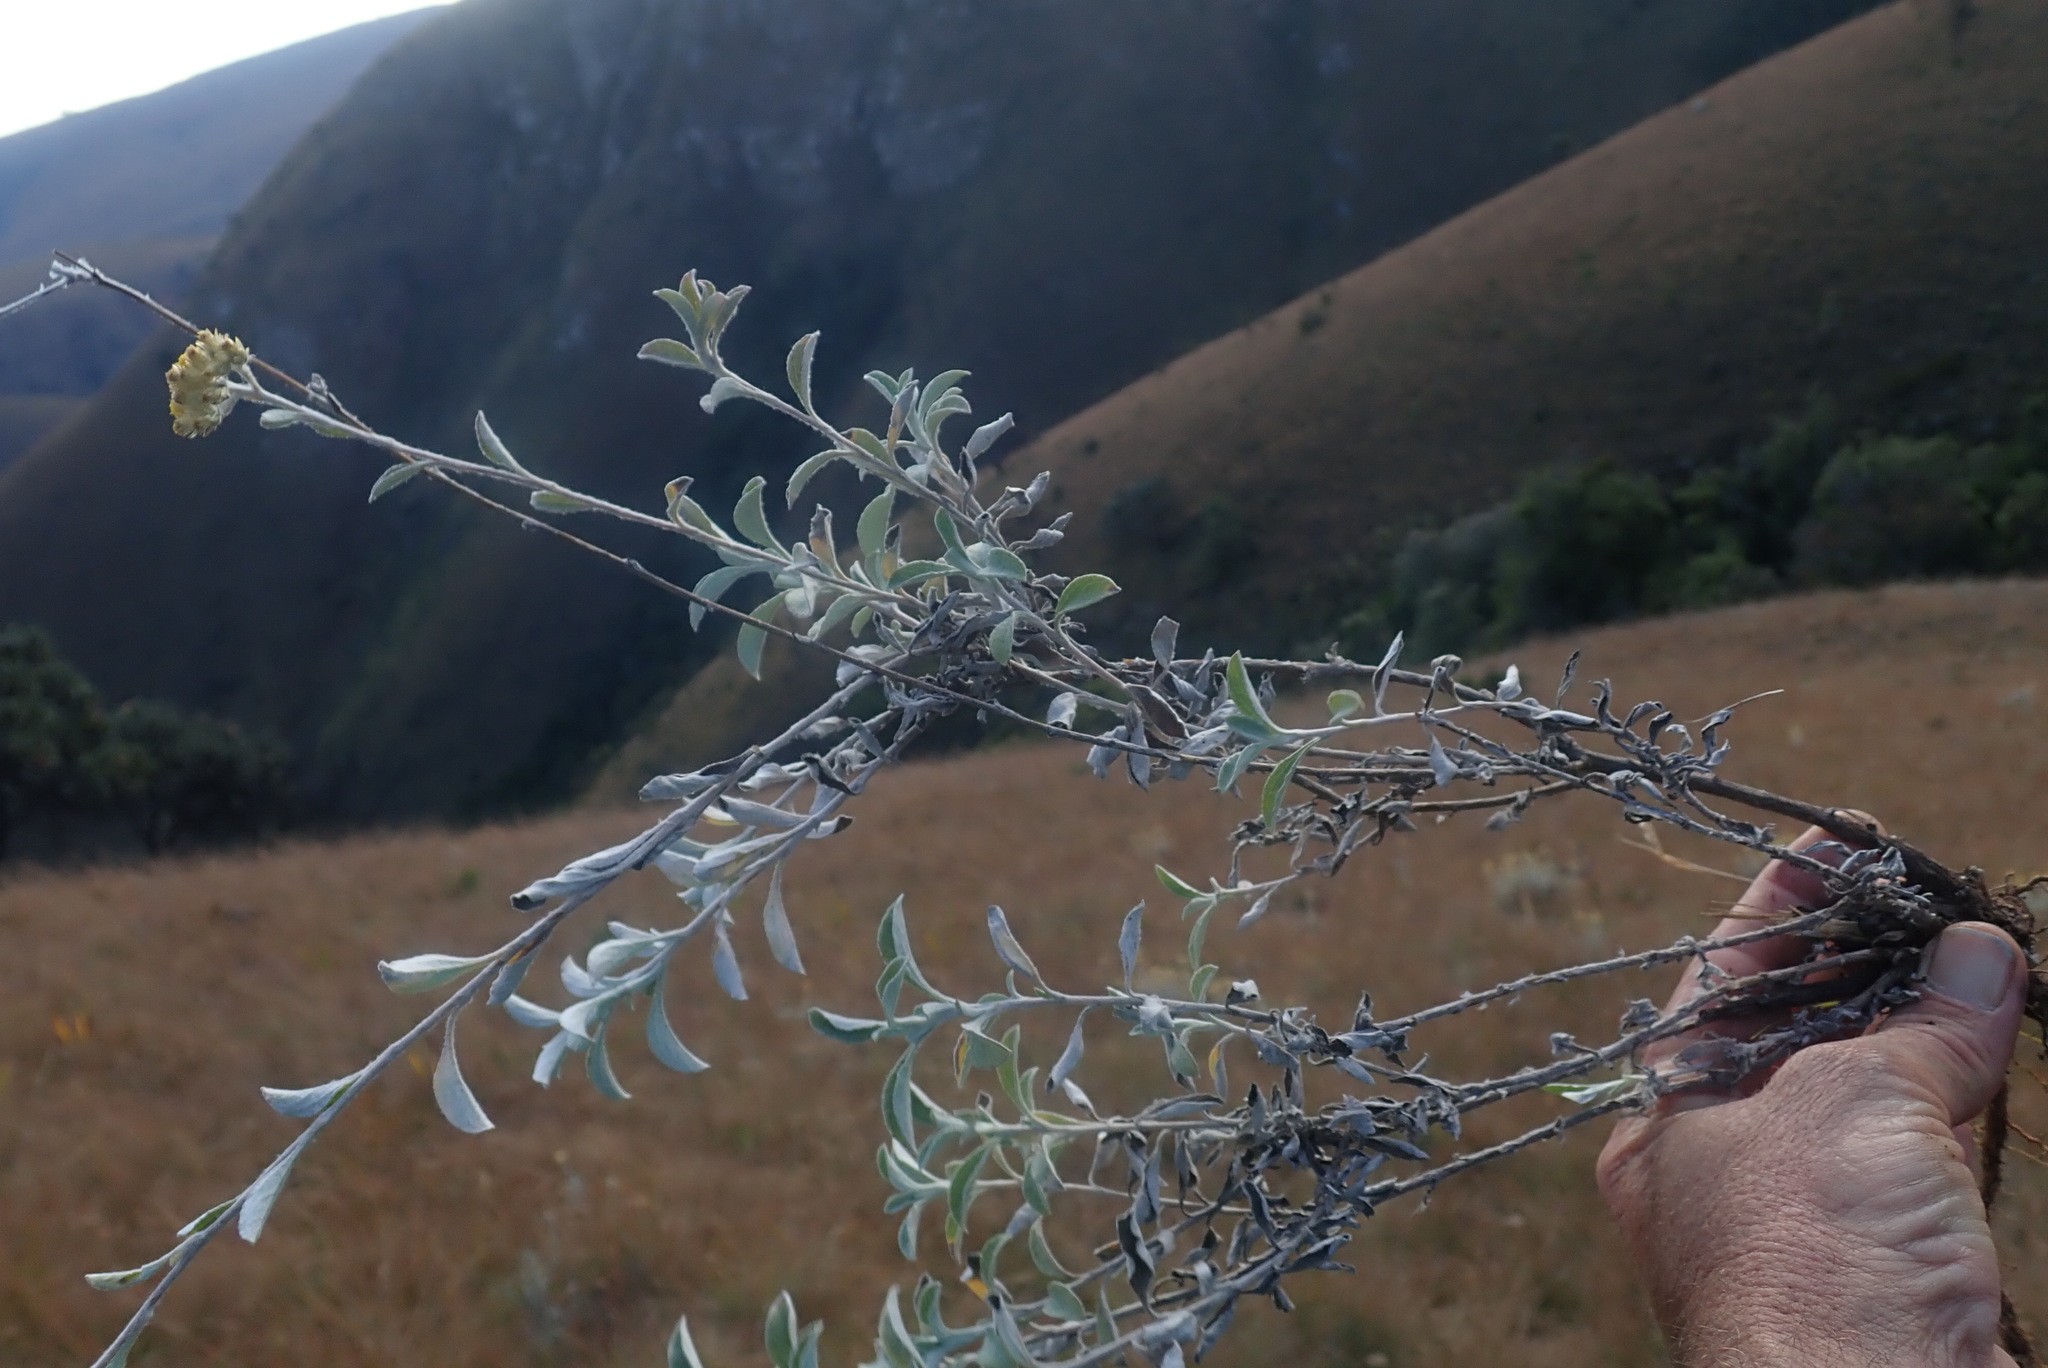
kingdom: Plantae
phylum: Tracheophyta
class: Magnoliopsida
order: Asterales
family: Asteraceae
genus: Helichrysum
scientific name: Helichrysum mimetes
